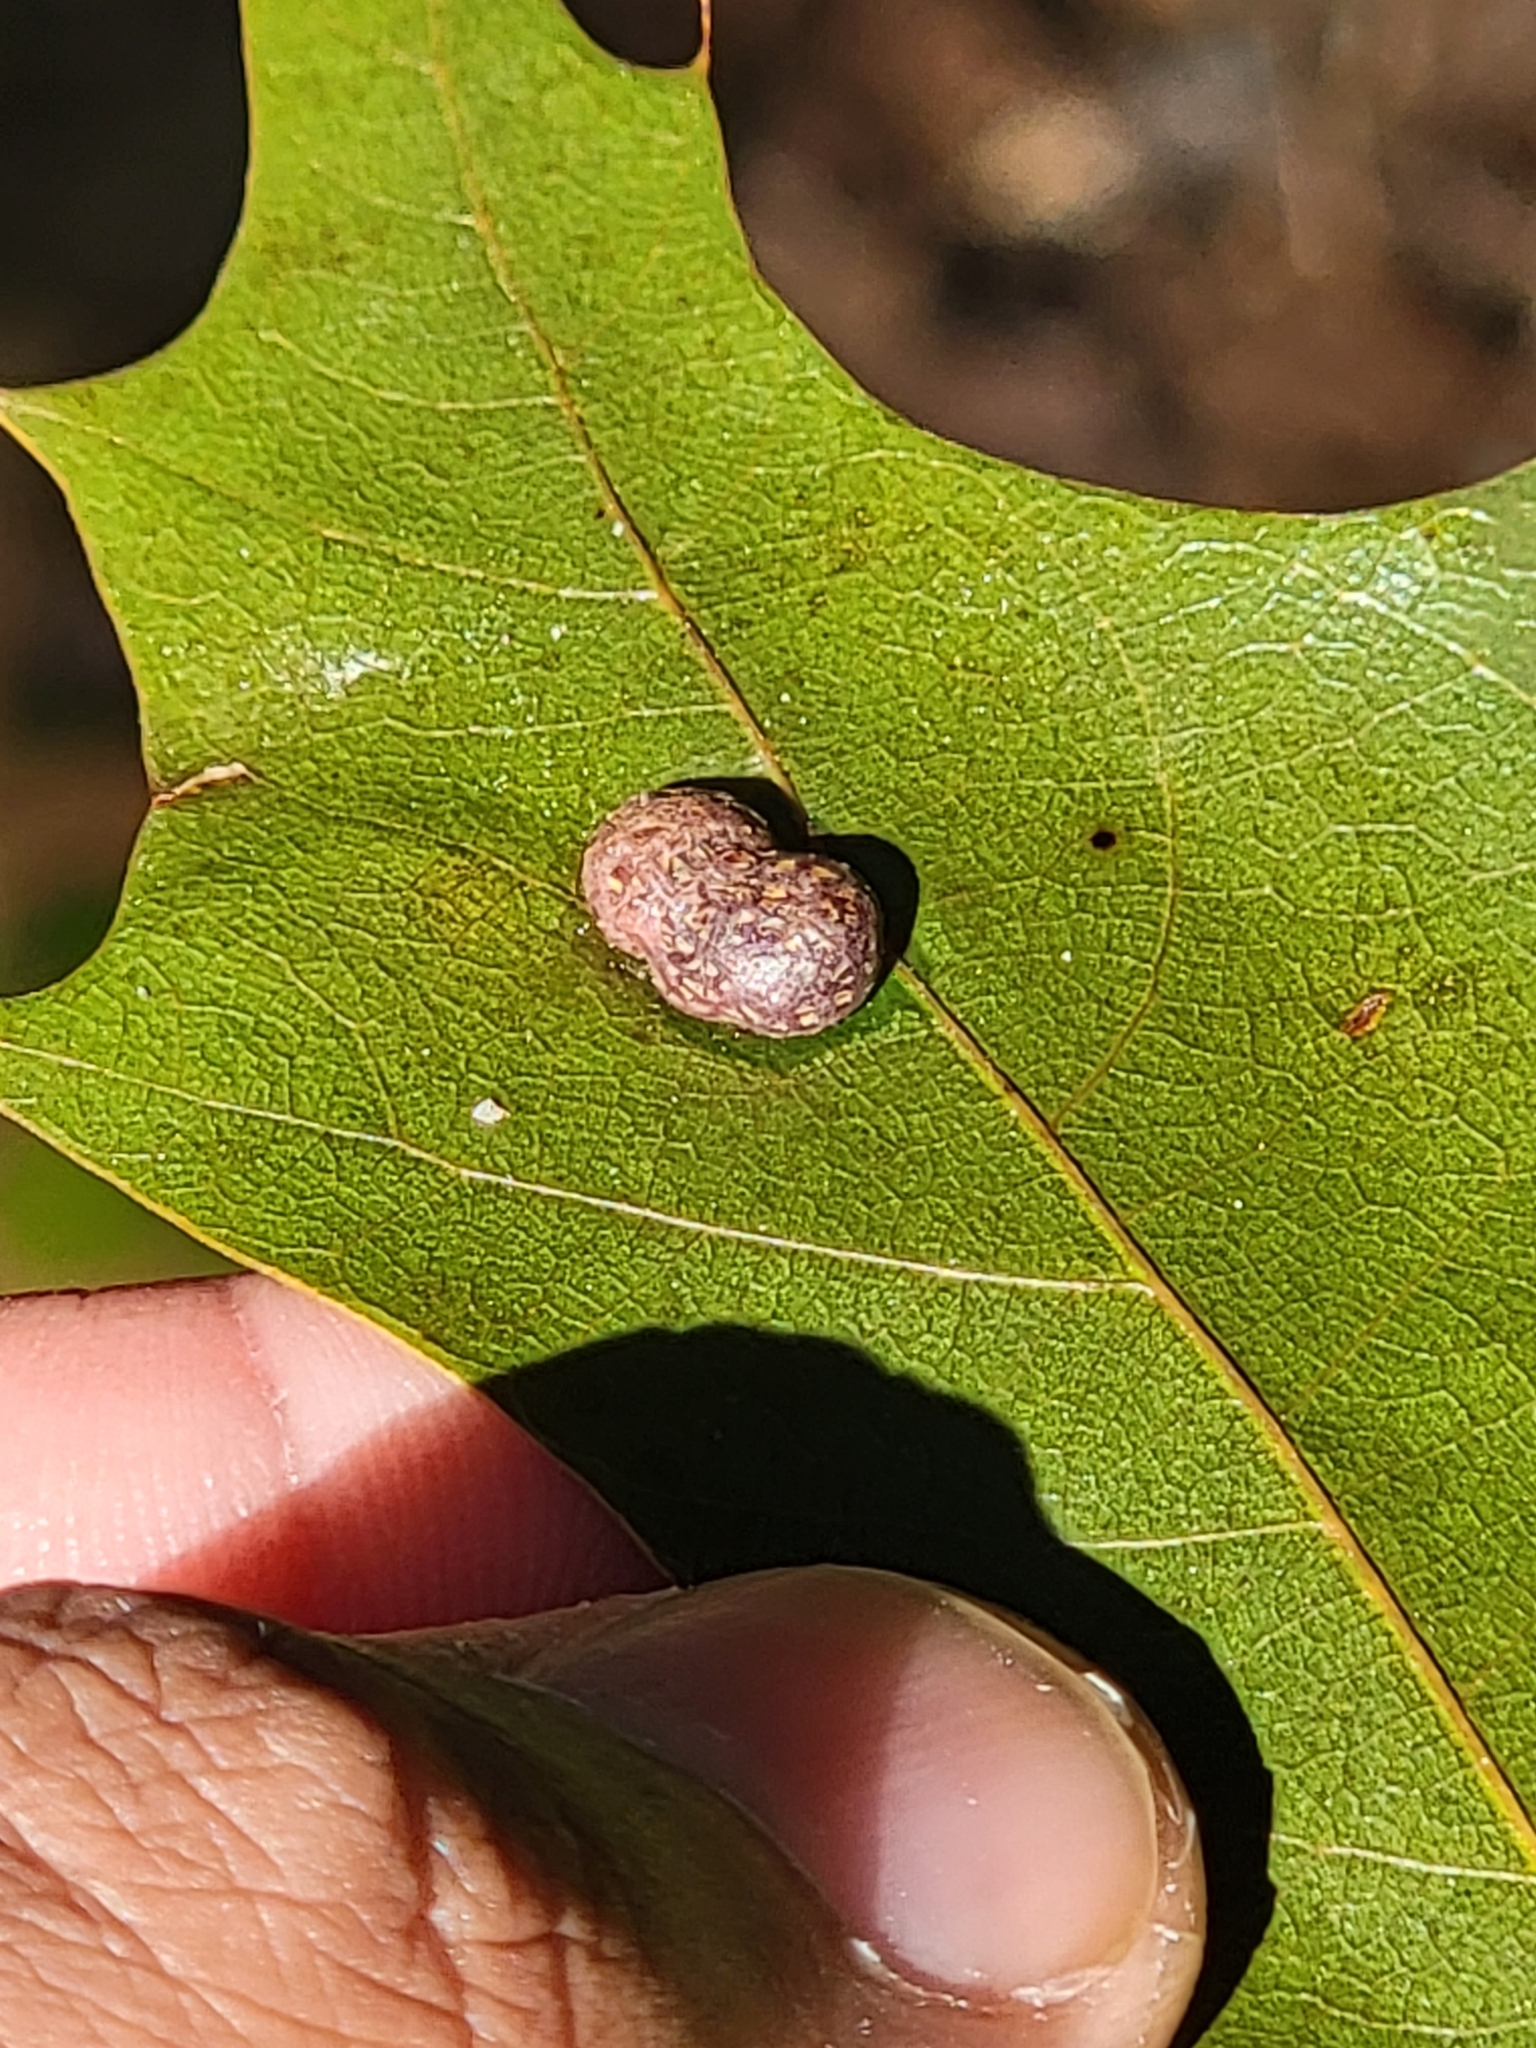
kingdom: Animalia
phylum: Arthropoda
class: Insecta
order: Diptera
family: Cecidomyiidae
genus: Polystepha
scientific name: Polystepha pilulae
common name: Oak leaf gall midge
